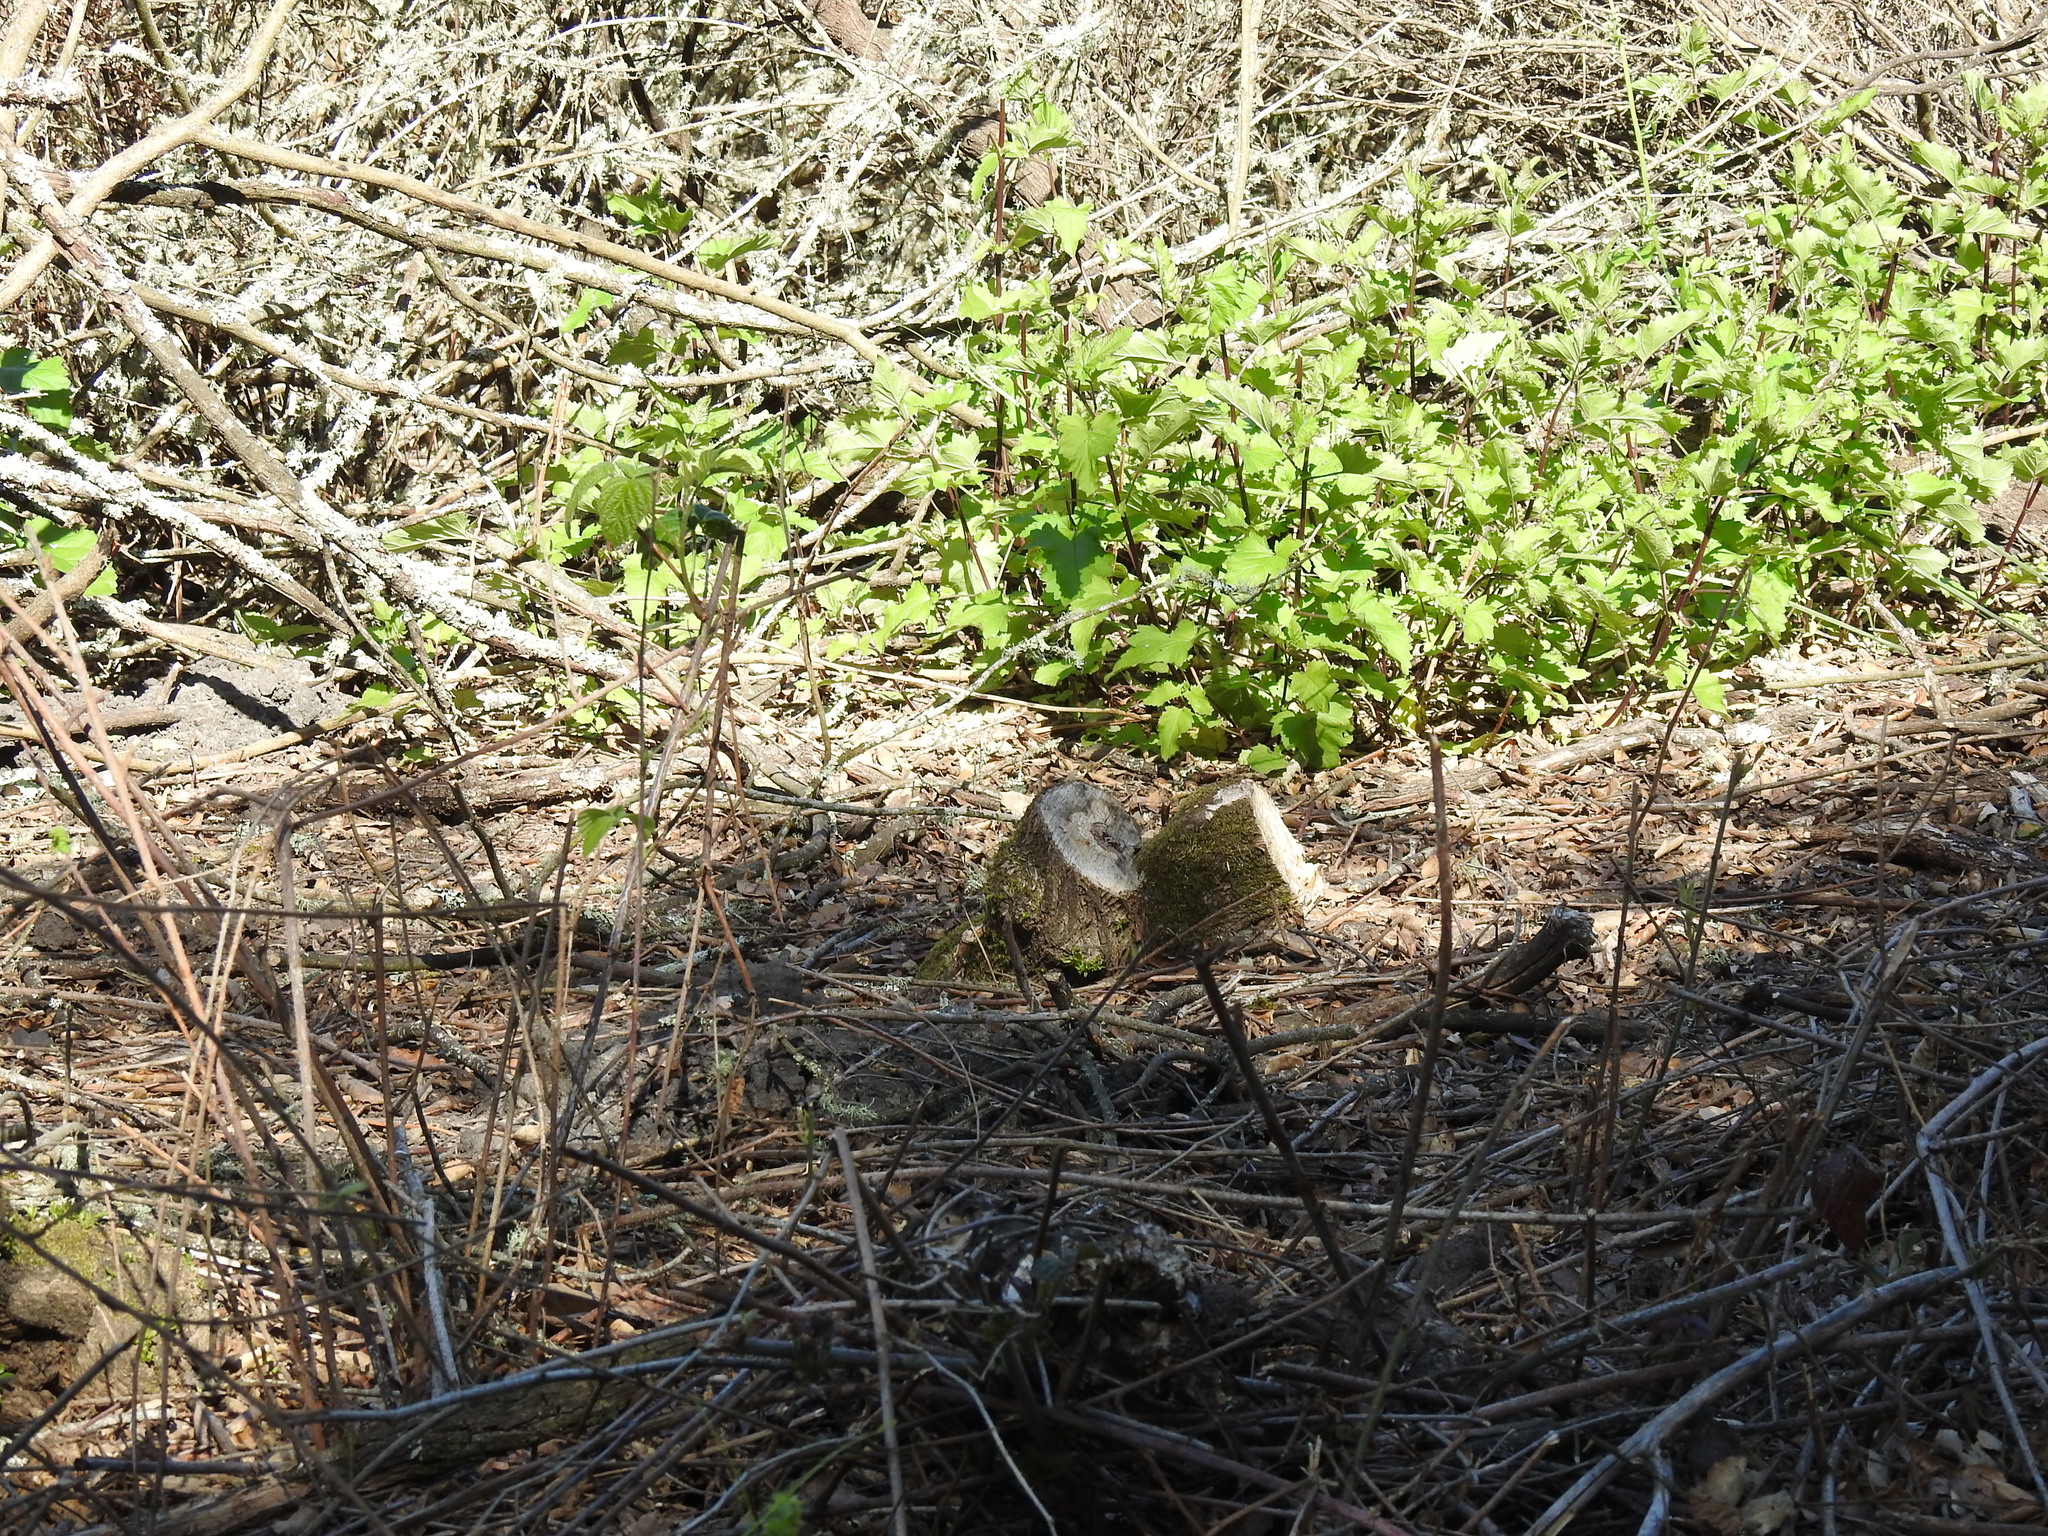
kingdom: Plantae
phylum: Tracheophyta
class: Magnoliopsida
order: Rosales
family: Rosaceae
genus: Rubus
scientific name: Rubus ursinus
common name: Pacific blackberry
